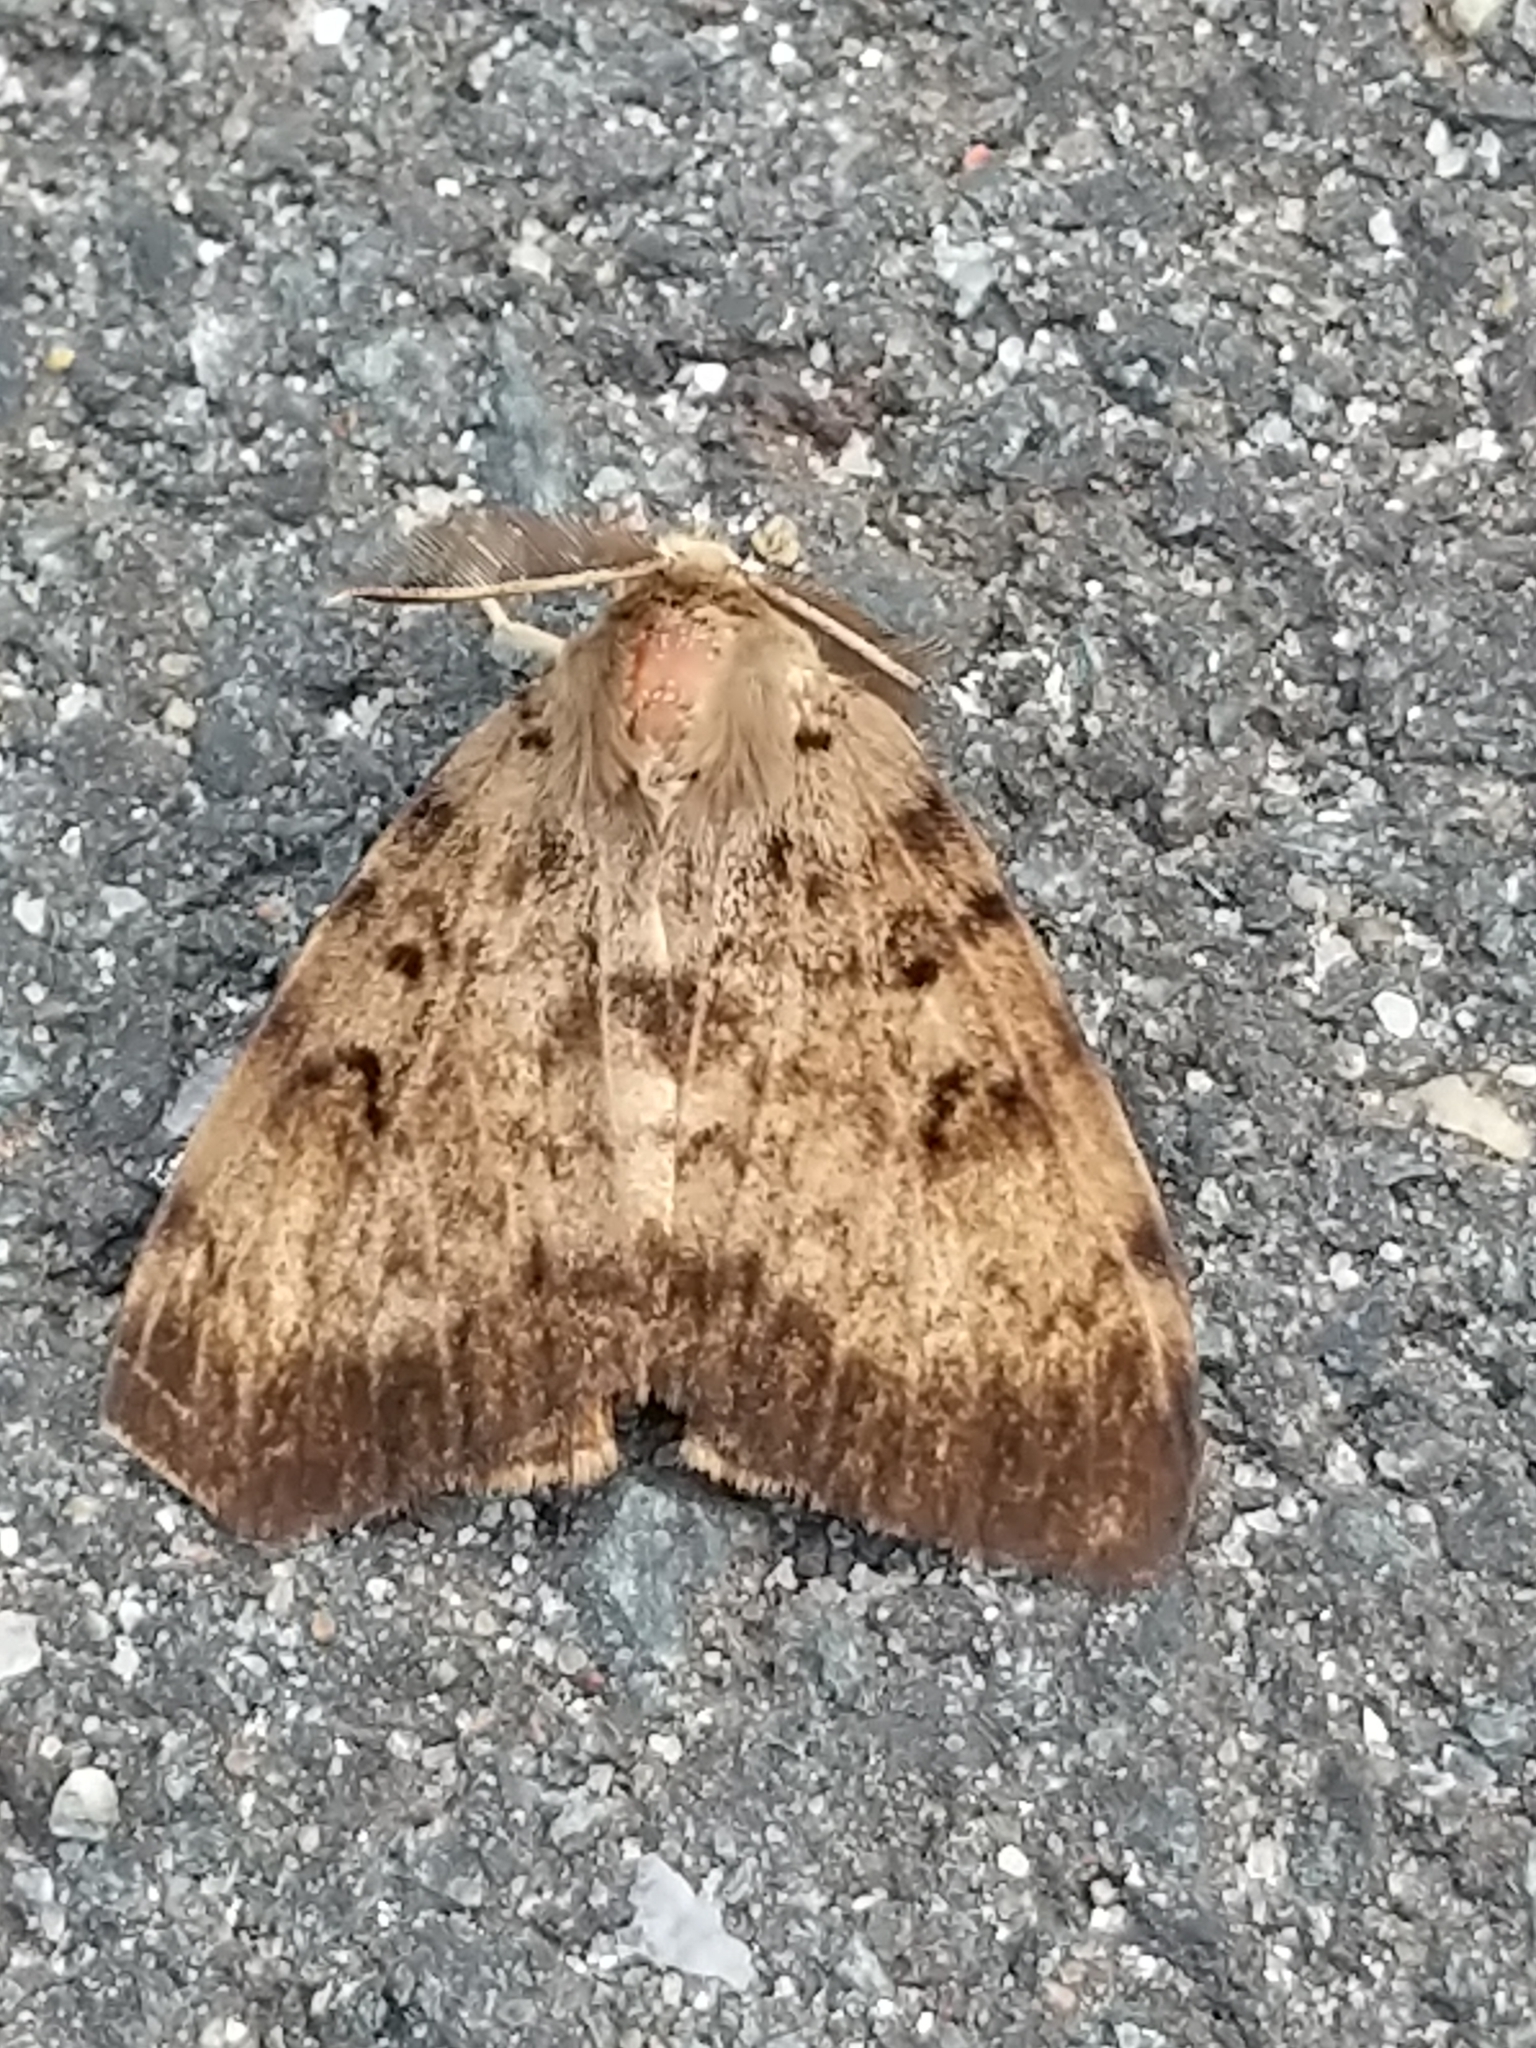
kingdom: Animalia
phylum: Arthropoda
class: Insecta
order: Lepidoptera
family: Erebidae
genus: Lymantria
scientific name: Lymantria dispar
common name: Gypsy moth
